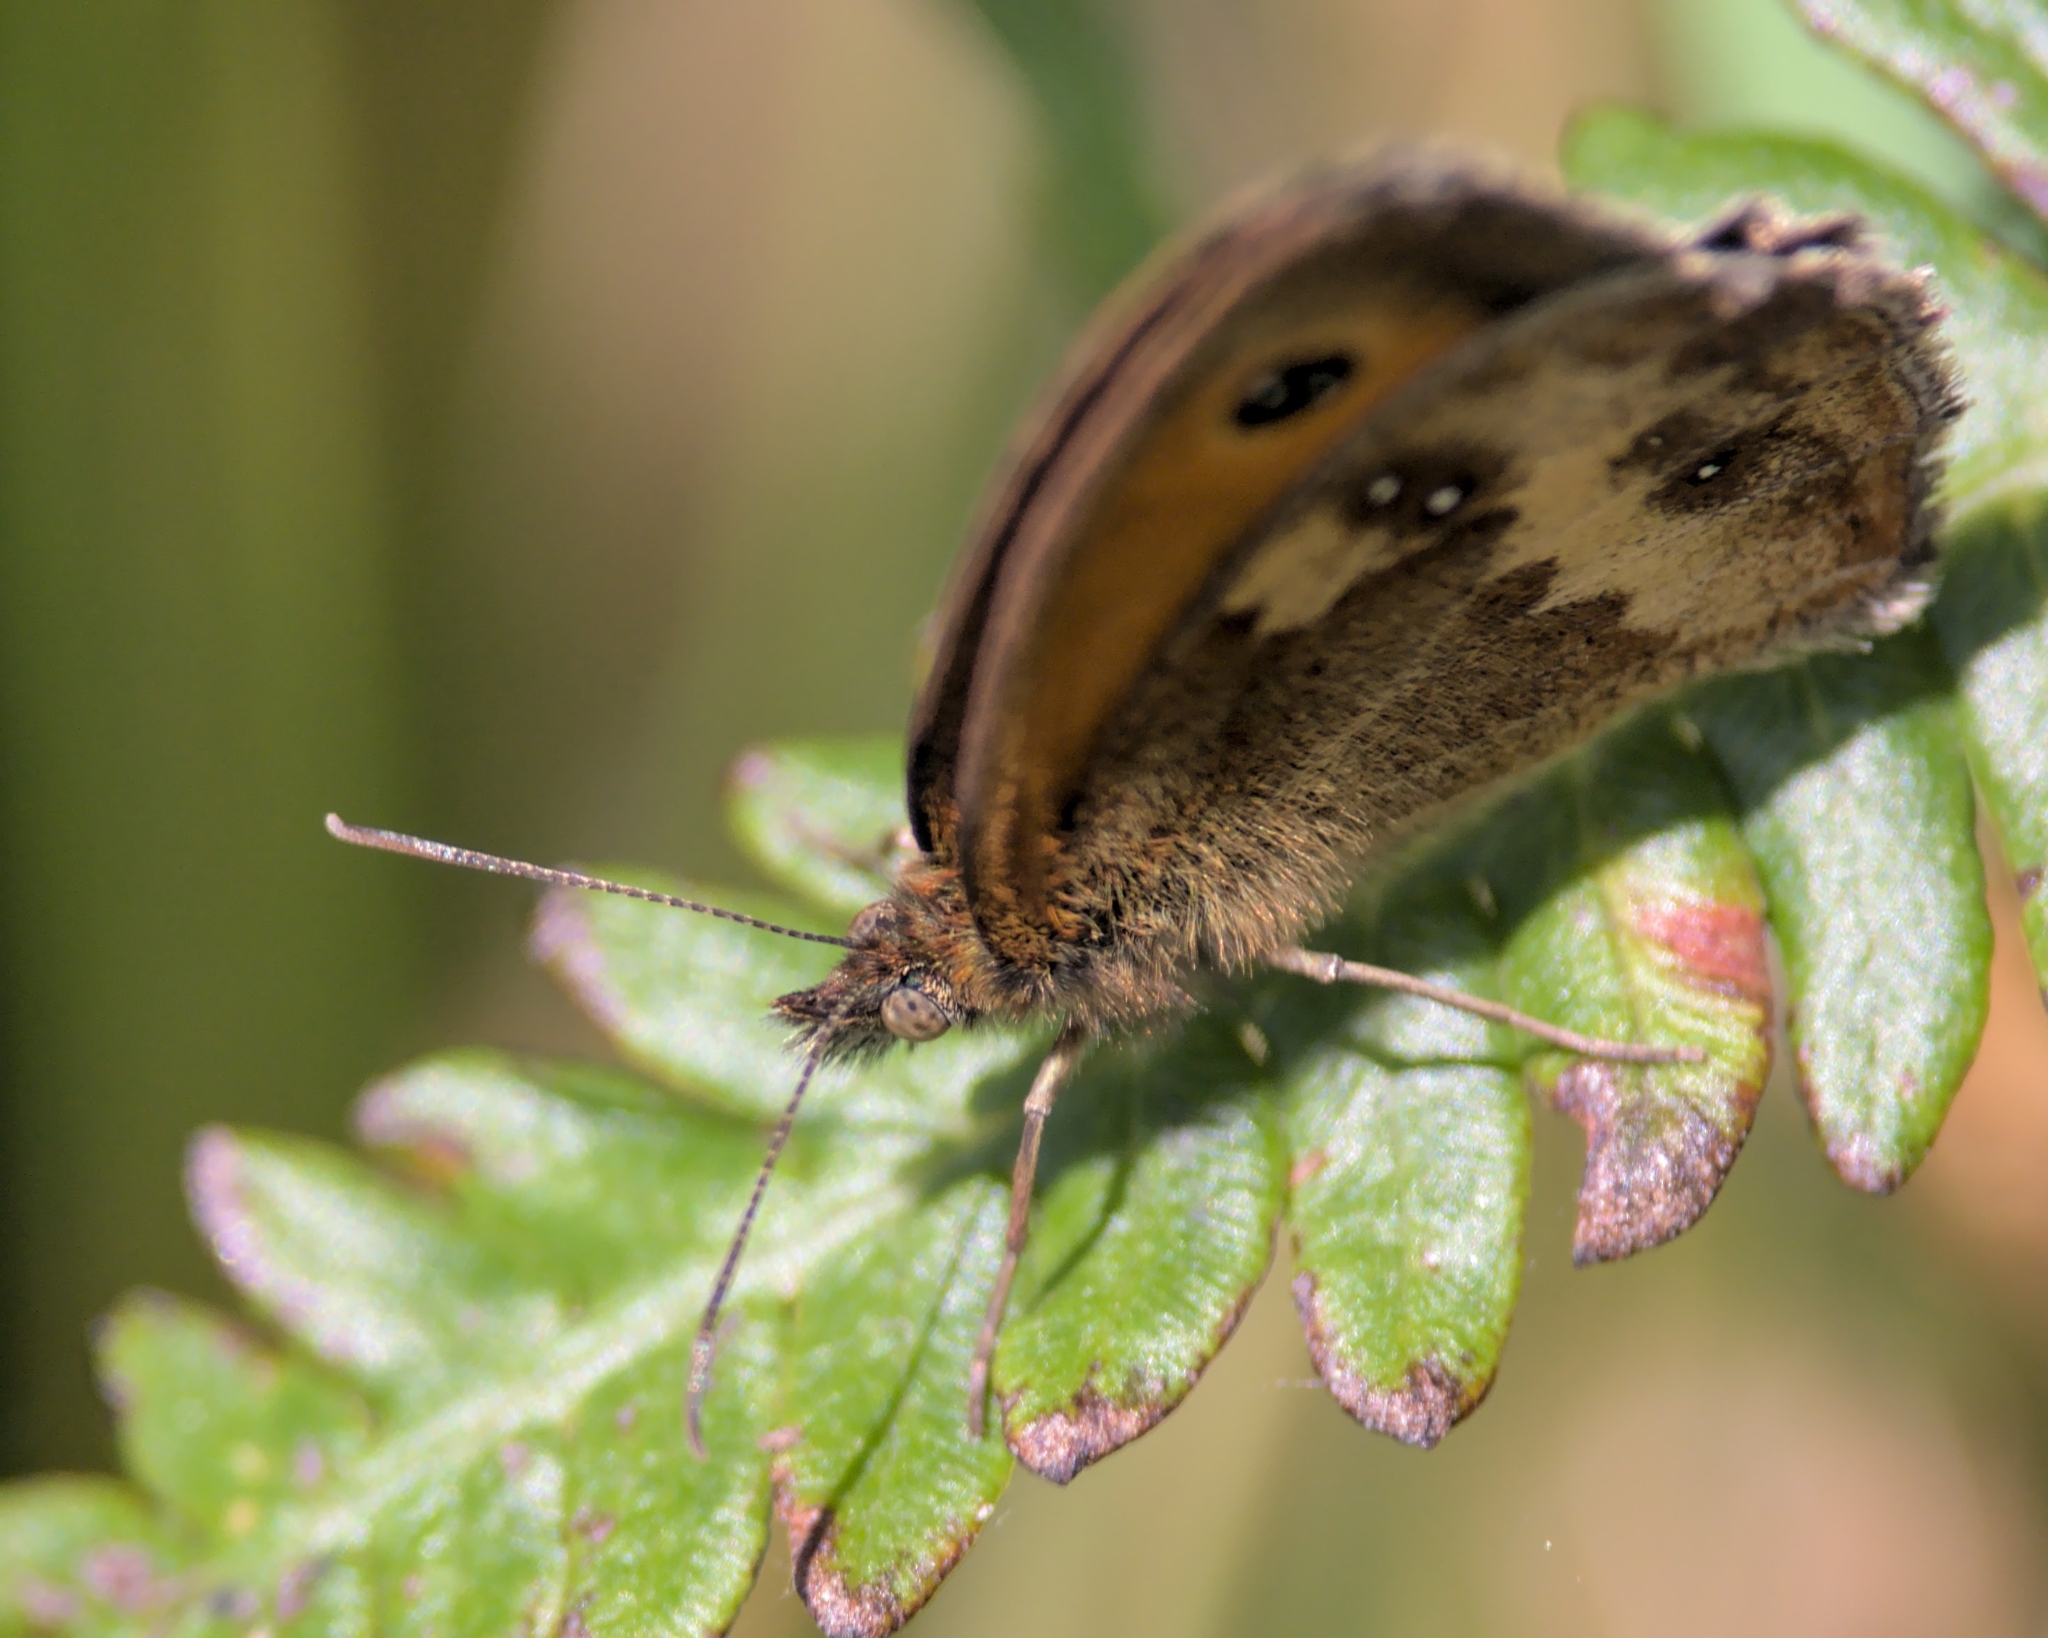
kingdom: Animalia
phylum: Arthropoda
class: Insecta
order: Lepidoptera
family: Nymphalidae
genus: Pyronia
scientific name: Pyronia tithonus
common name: Gatekeeper
